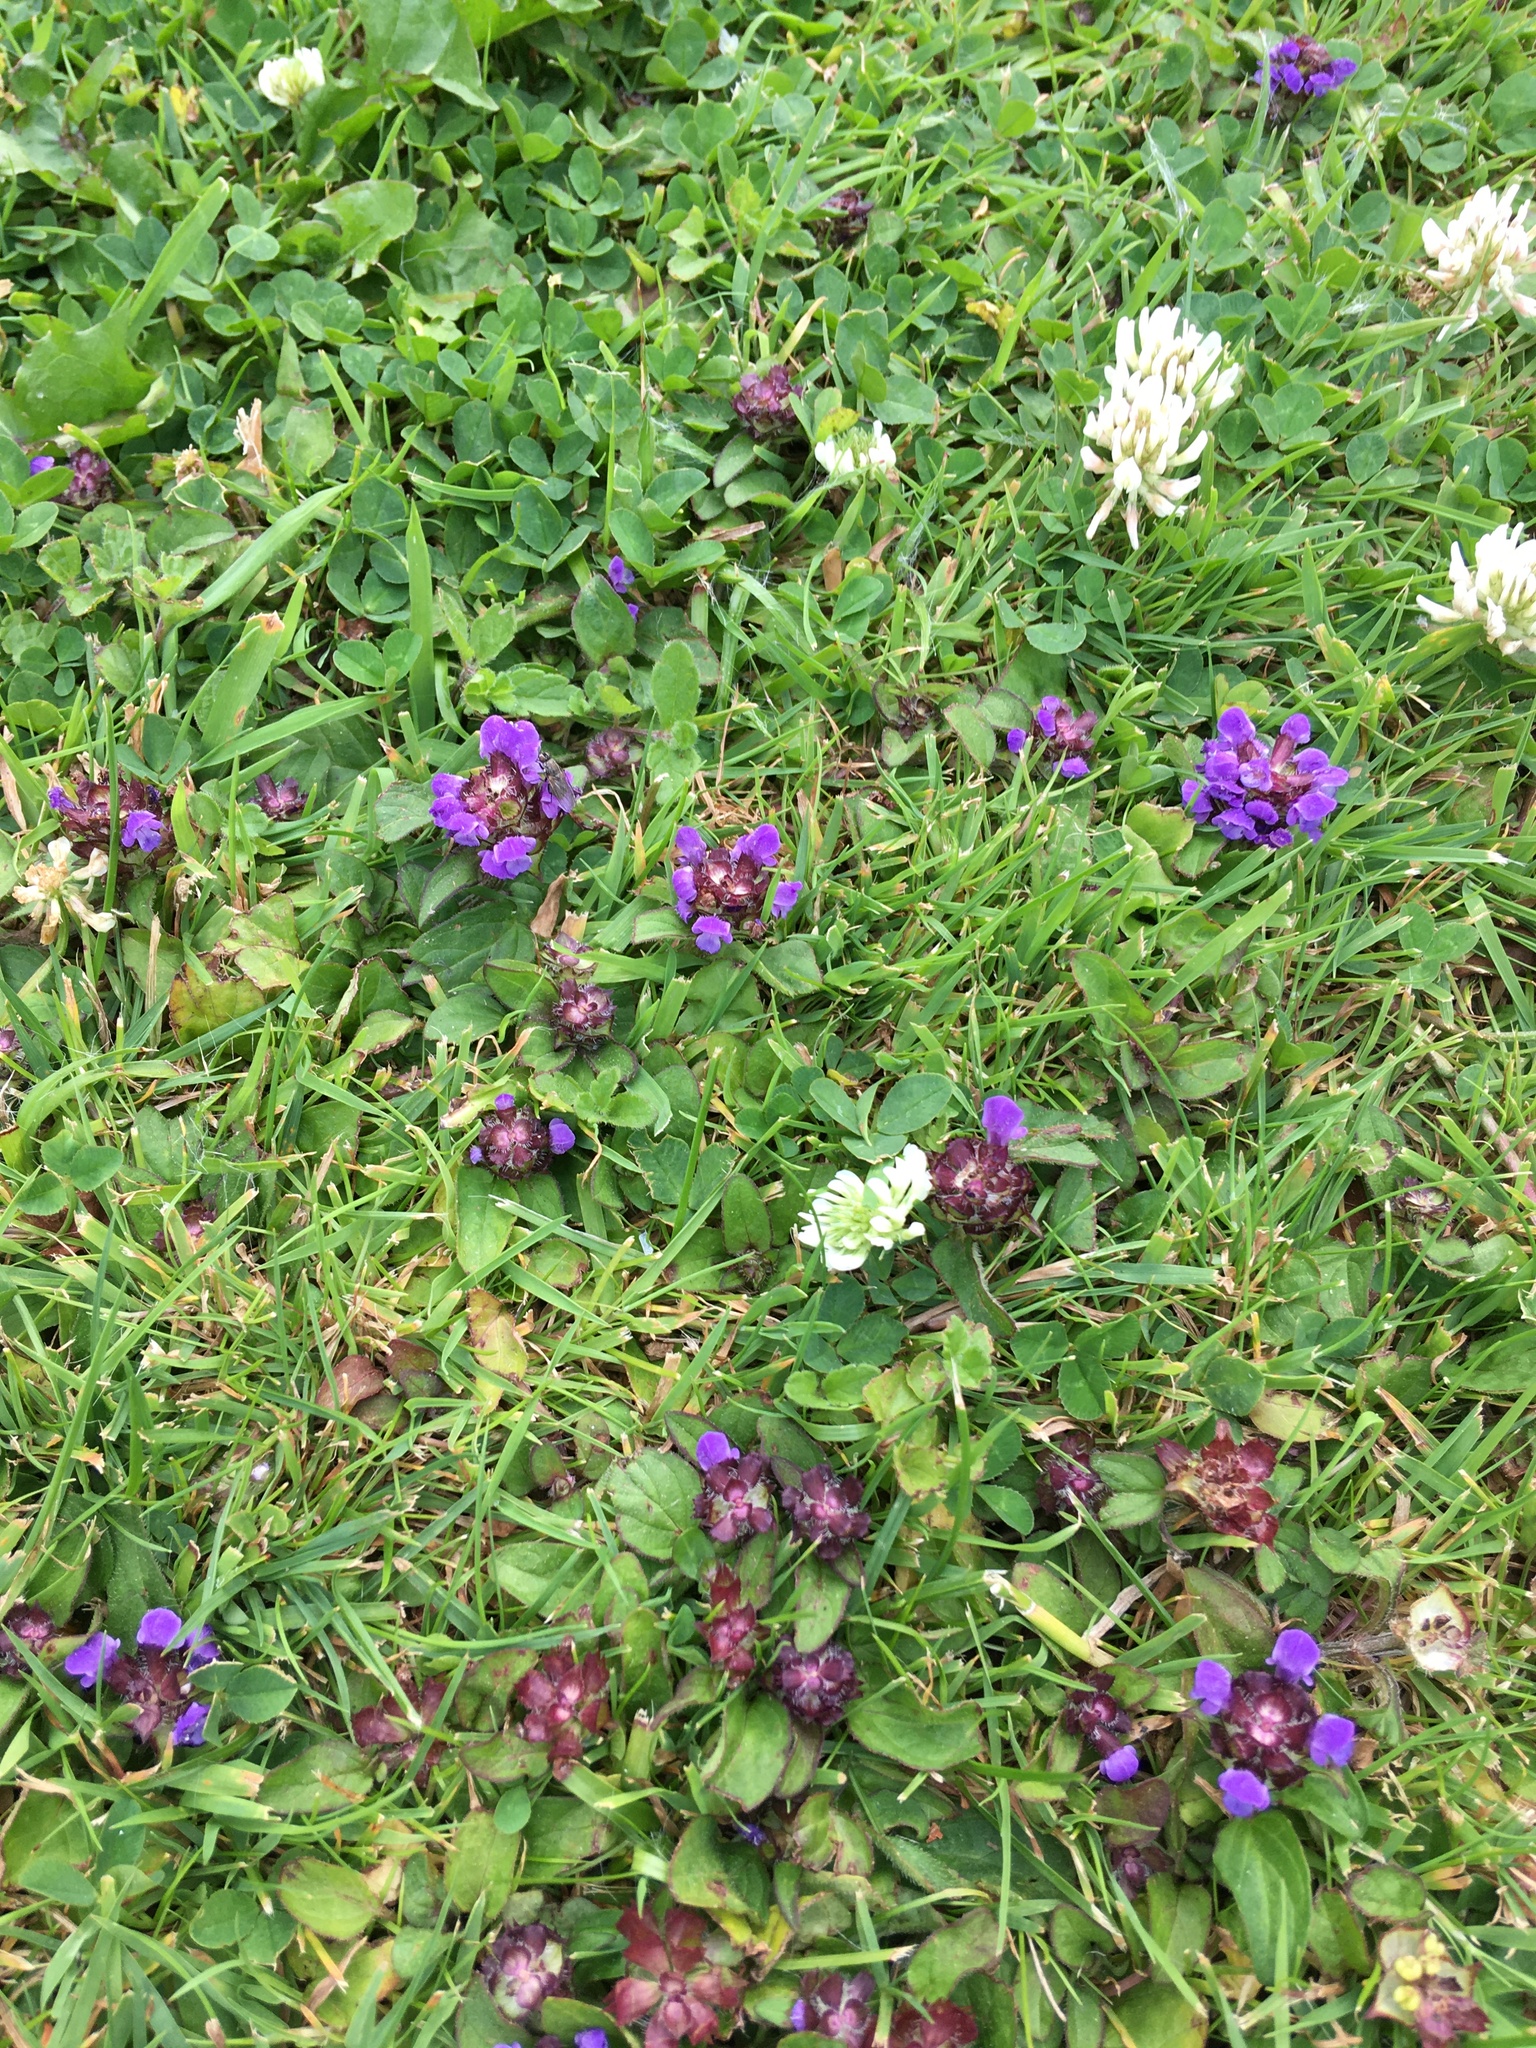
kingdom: Plantae
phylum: Tracheophyta
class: Magnoliopsida
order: Lamiales
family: Lamiaceae
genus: Prunella
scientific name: Prunella vulgaris
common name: Heal-all
